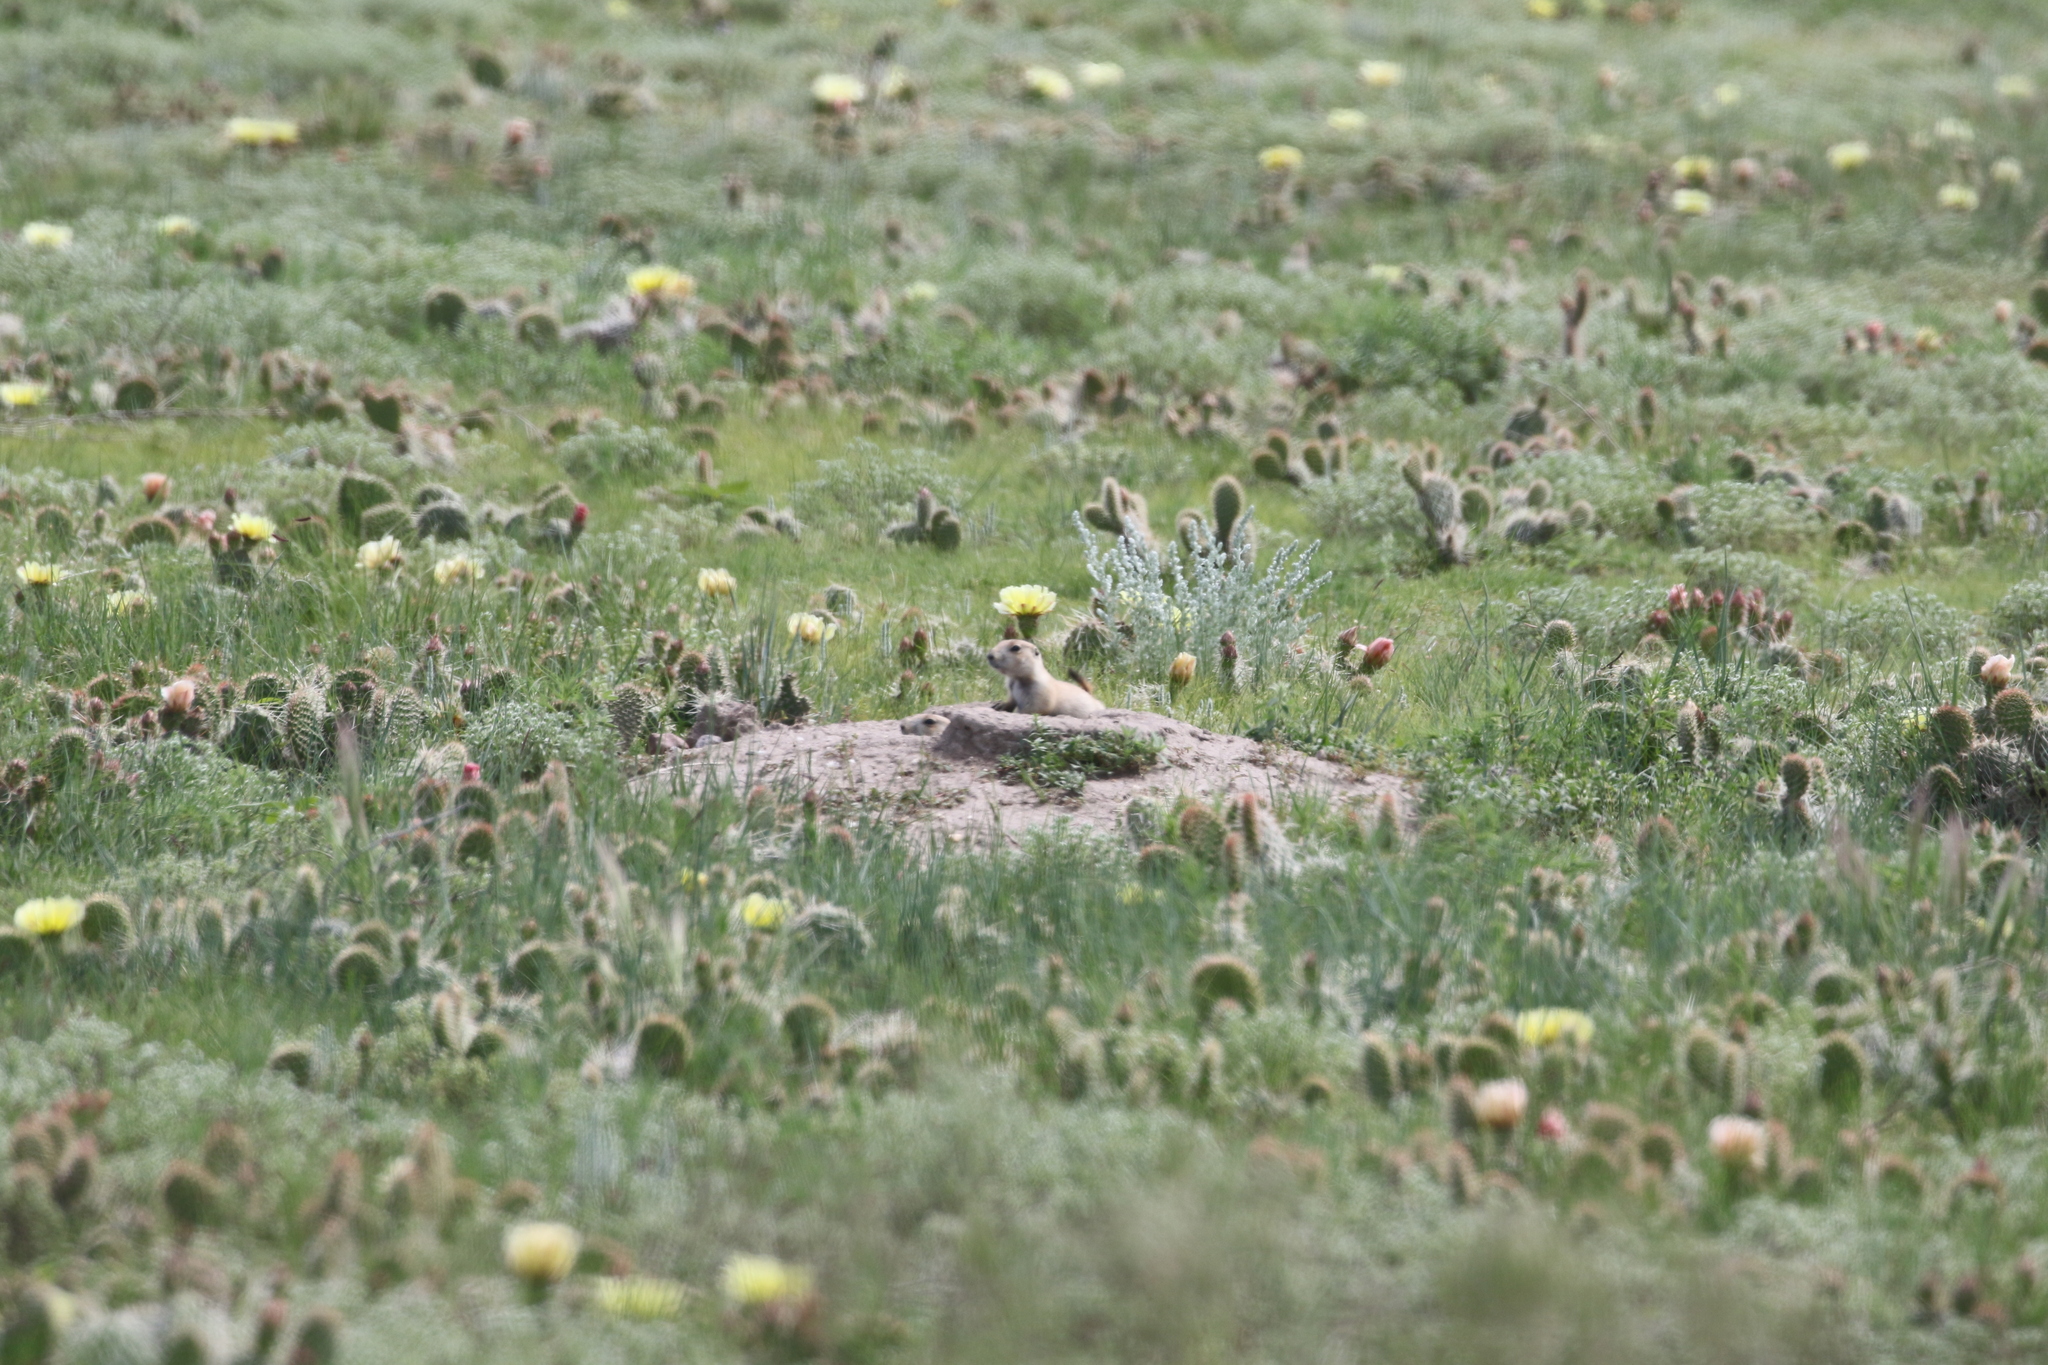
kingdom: Animalia
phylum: Chordata
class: Mammalia
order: Rodentia
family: Sciuridae
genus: Cynomys
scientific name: Cynomys ludovicianus
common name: Black-tailed prairie dog
